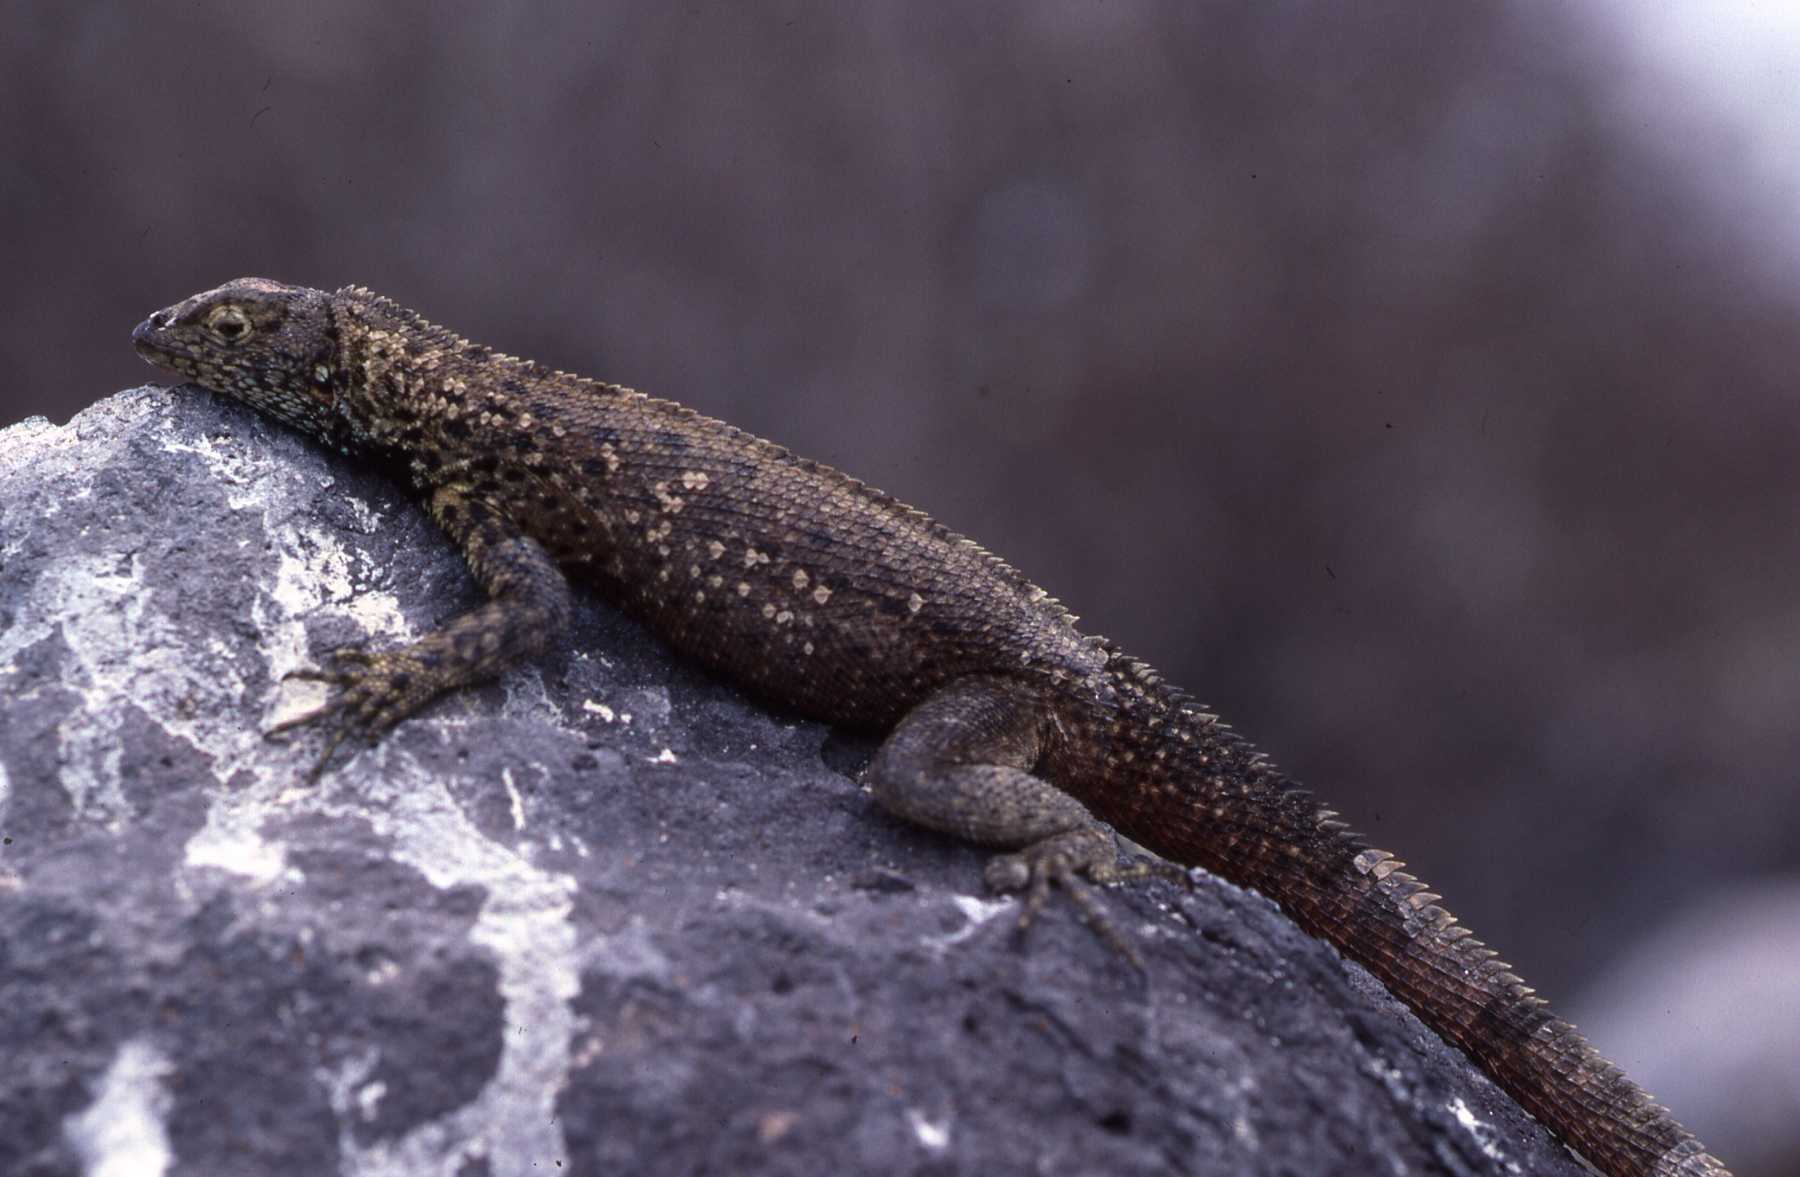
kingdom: Animalia
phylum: Chordata
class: Squamata
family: Tropiduridae
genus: Microlophus
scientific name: Microlophus delanonis
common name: Hood lava lizard
